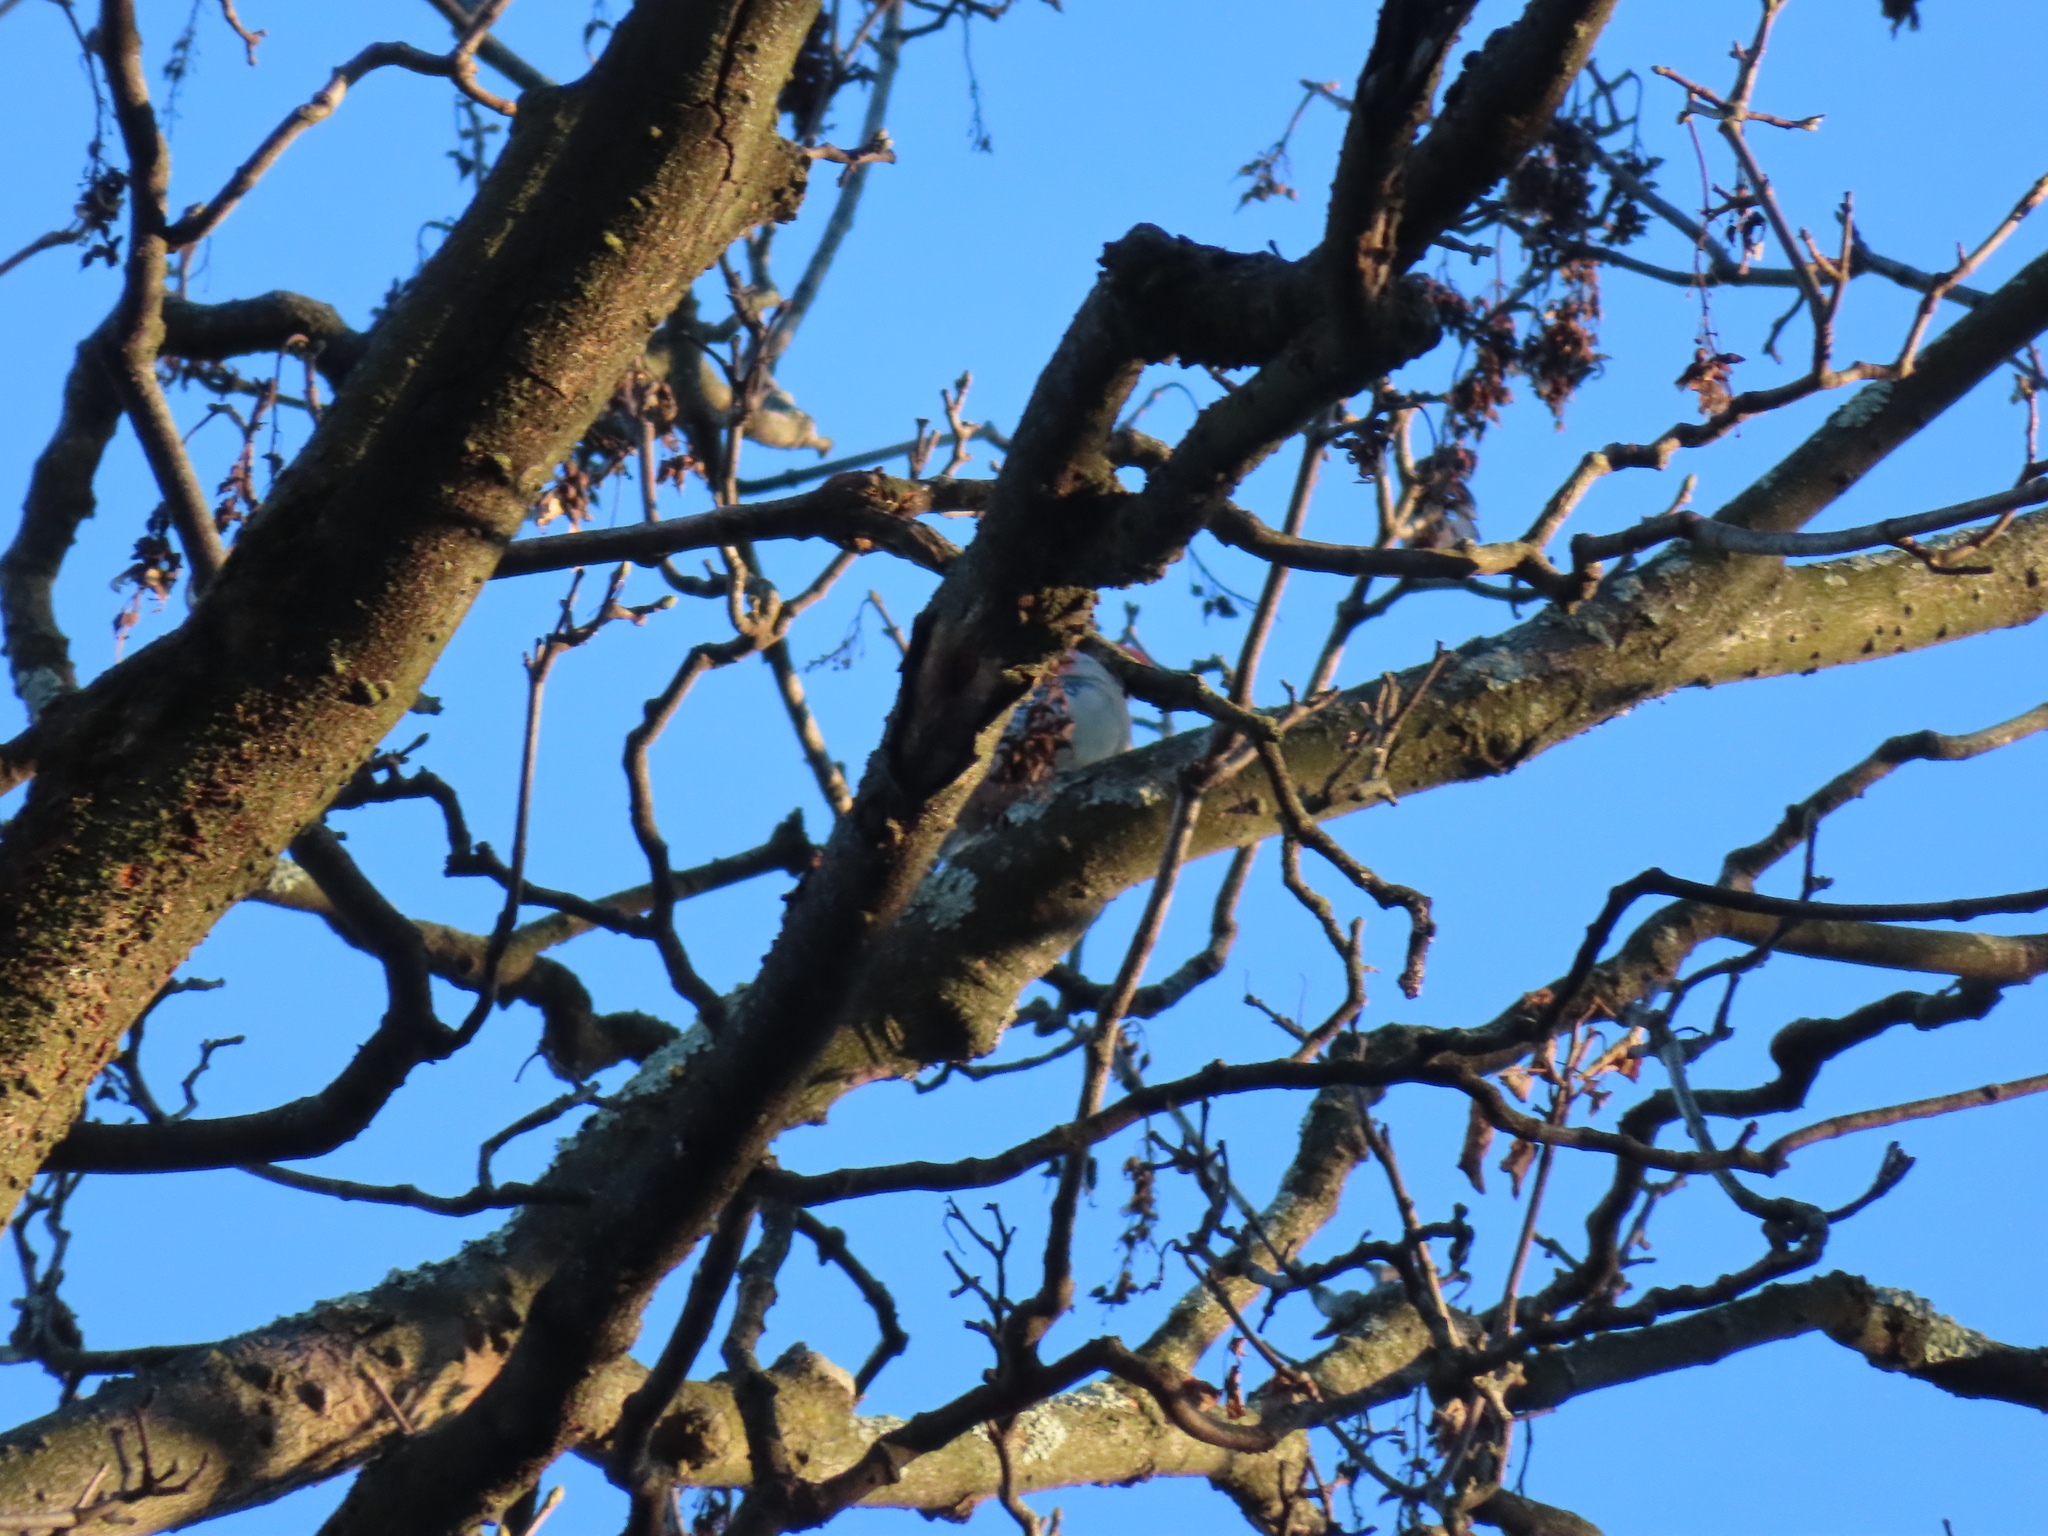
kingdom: Animalia
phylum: Chordata
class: Aves
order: Piciformes
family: Picidae
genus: Melanerpes
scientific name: Melanerpes carolinus
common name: Red-bellied woodpecker
